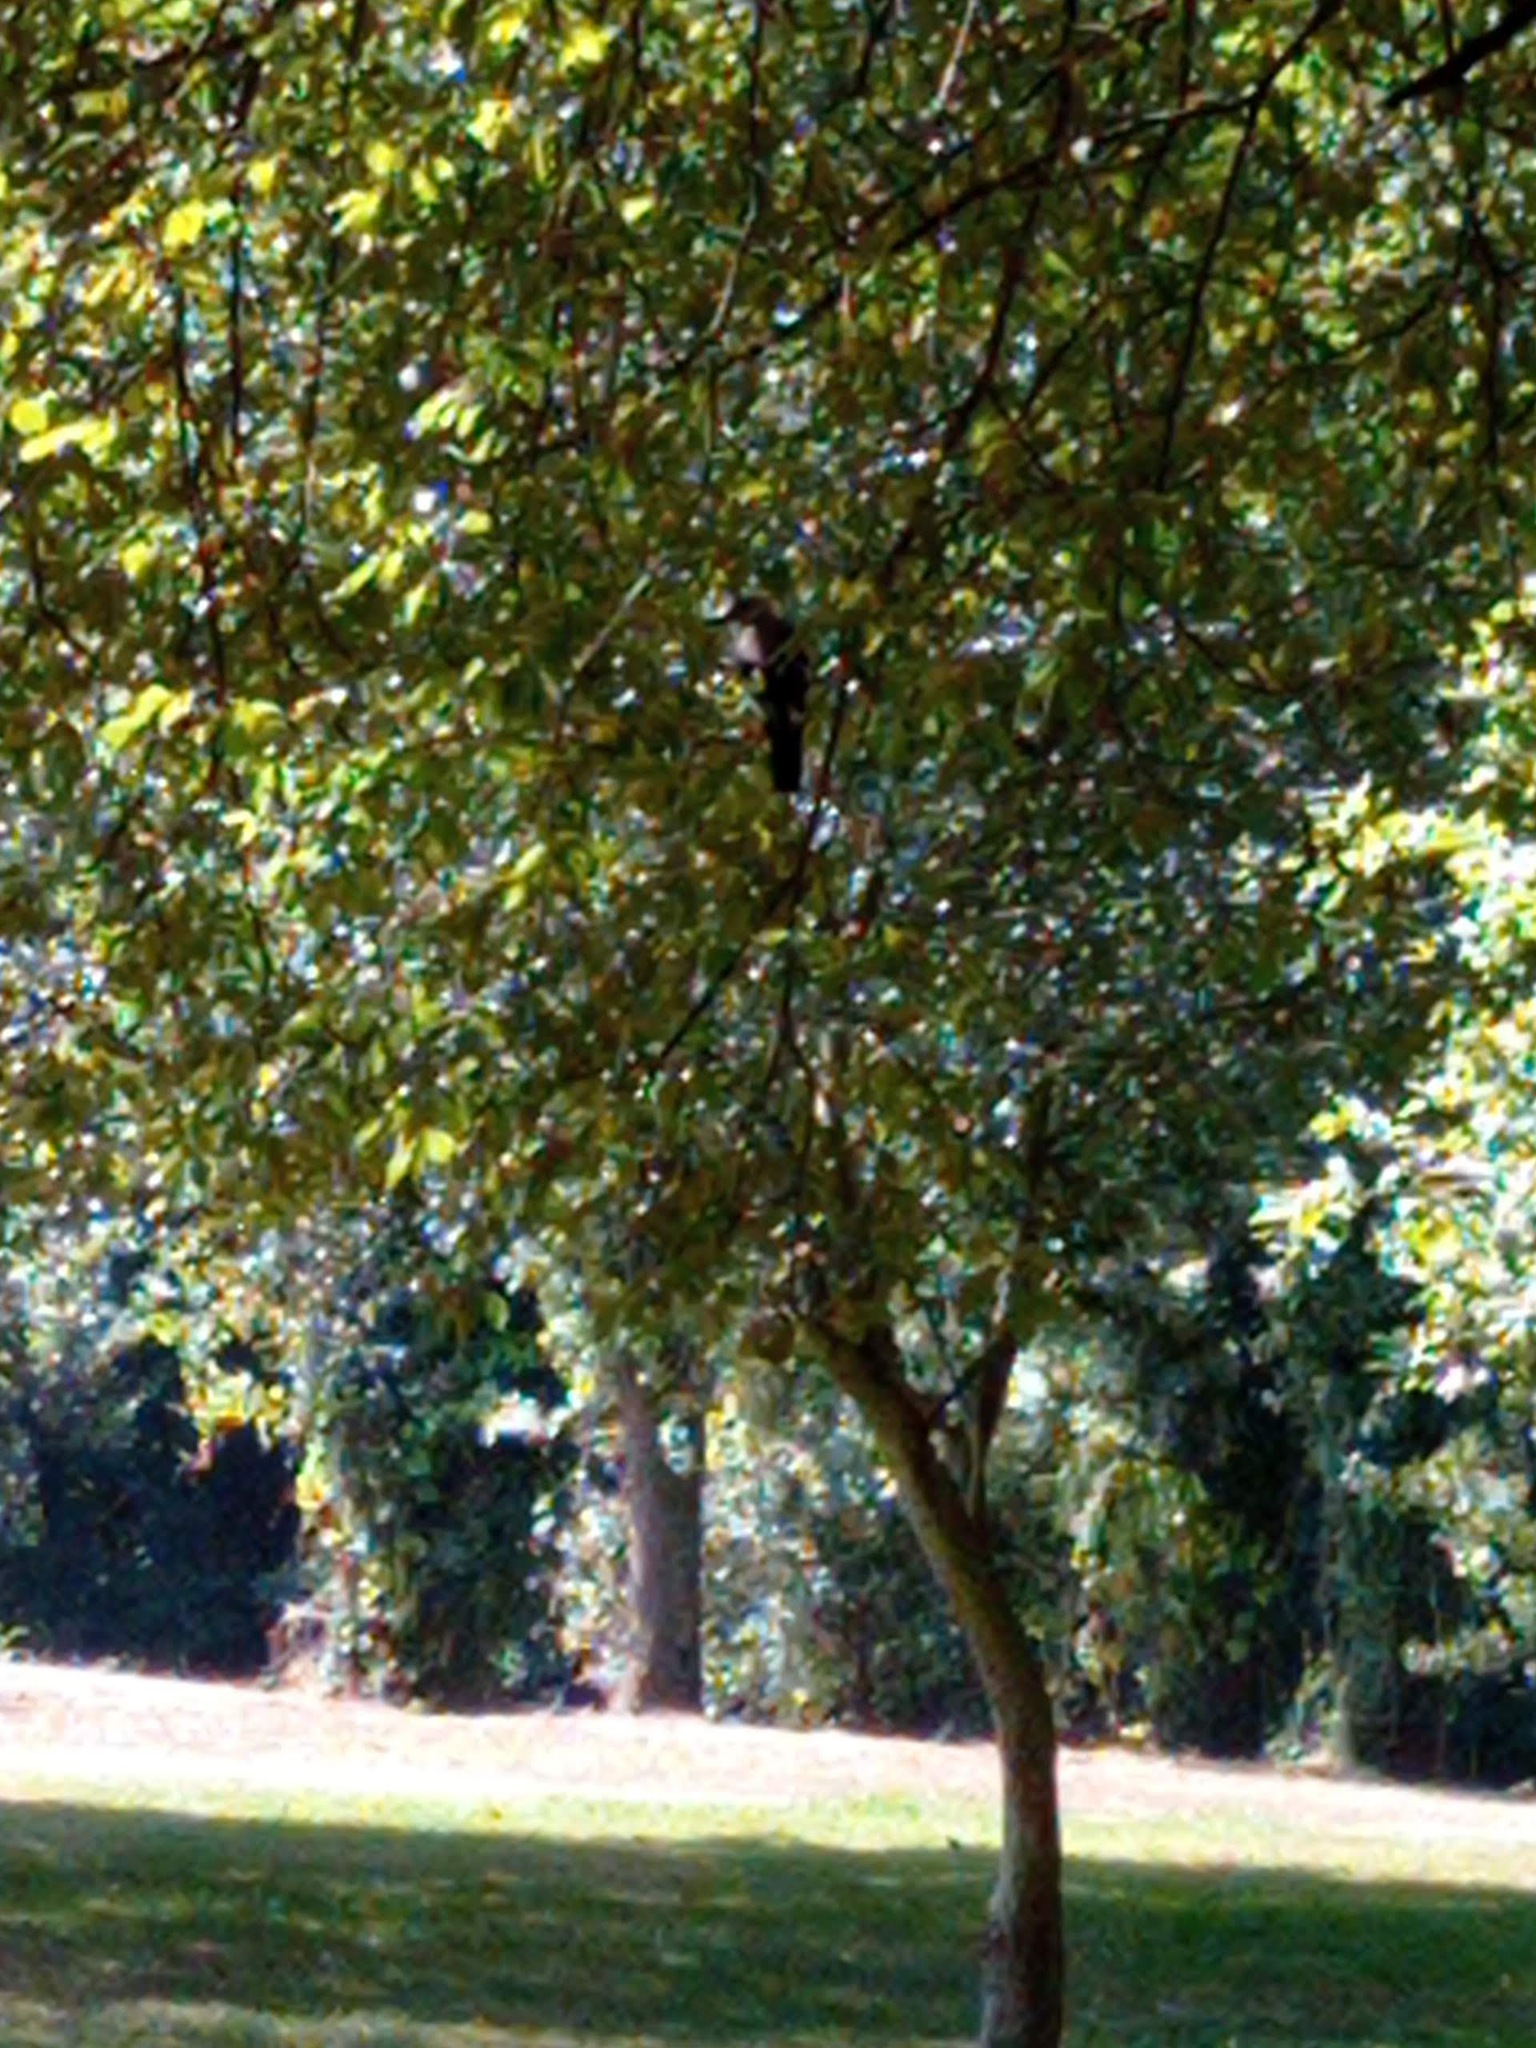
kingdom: Animalia
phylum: Chordata
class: Aves
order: Passeriformes
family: Corvidae
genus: Garrulus
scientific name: Garrulus glandarius
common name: Eurasian jay
